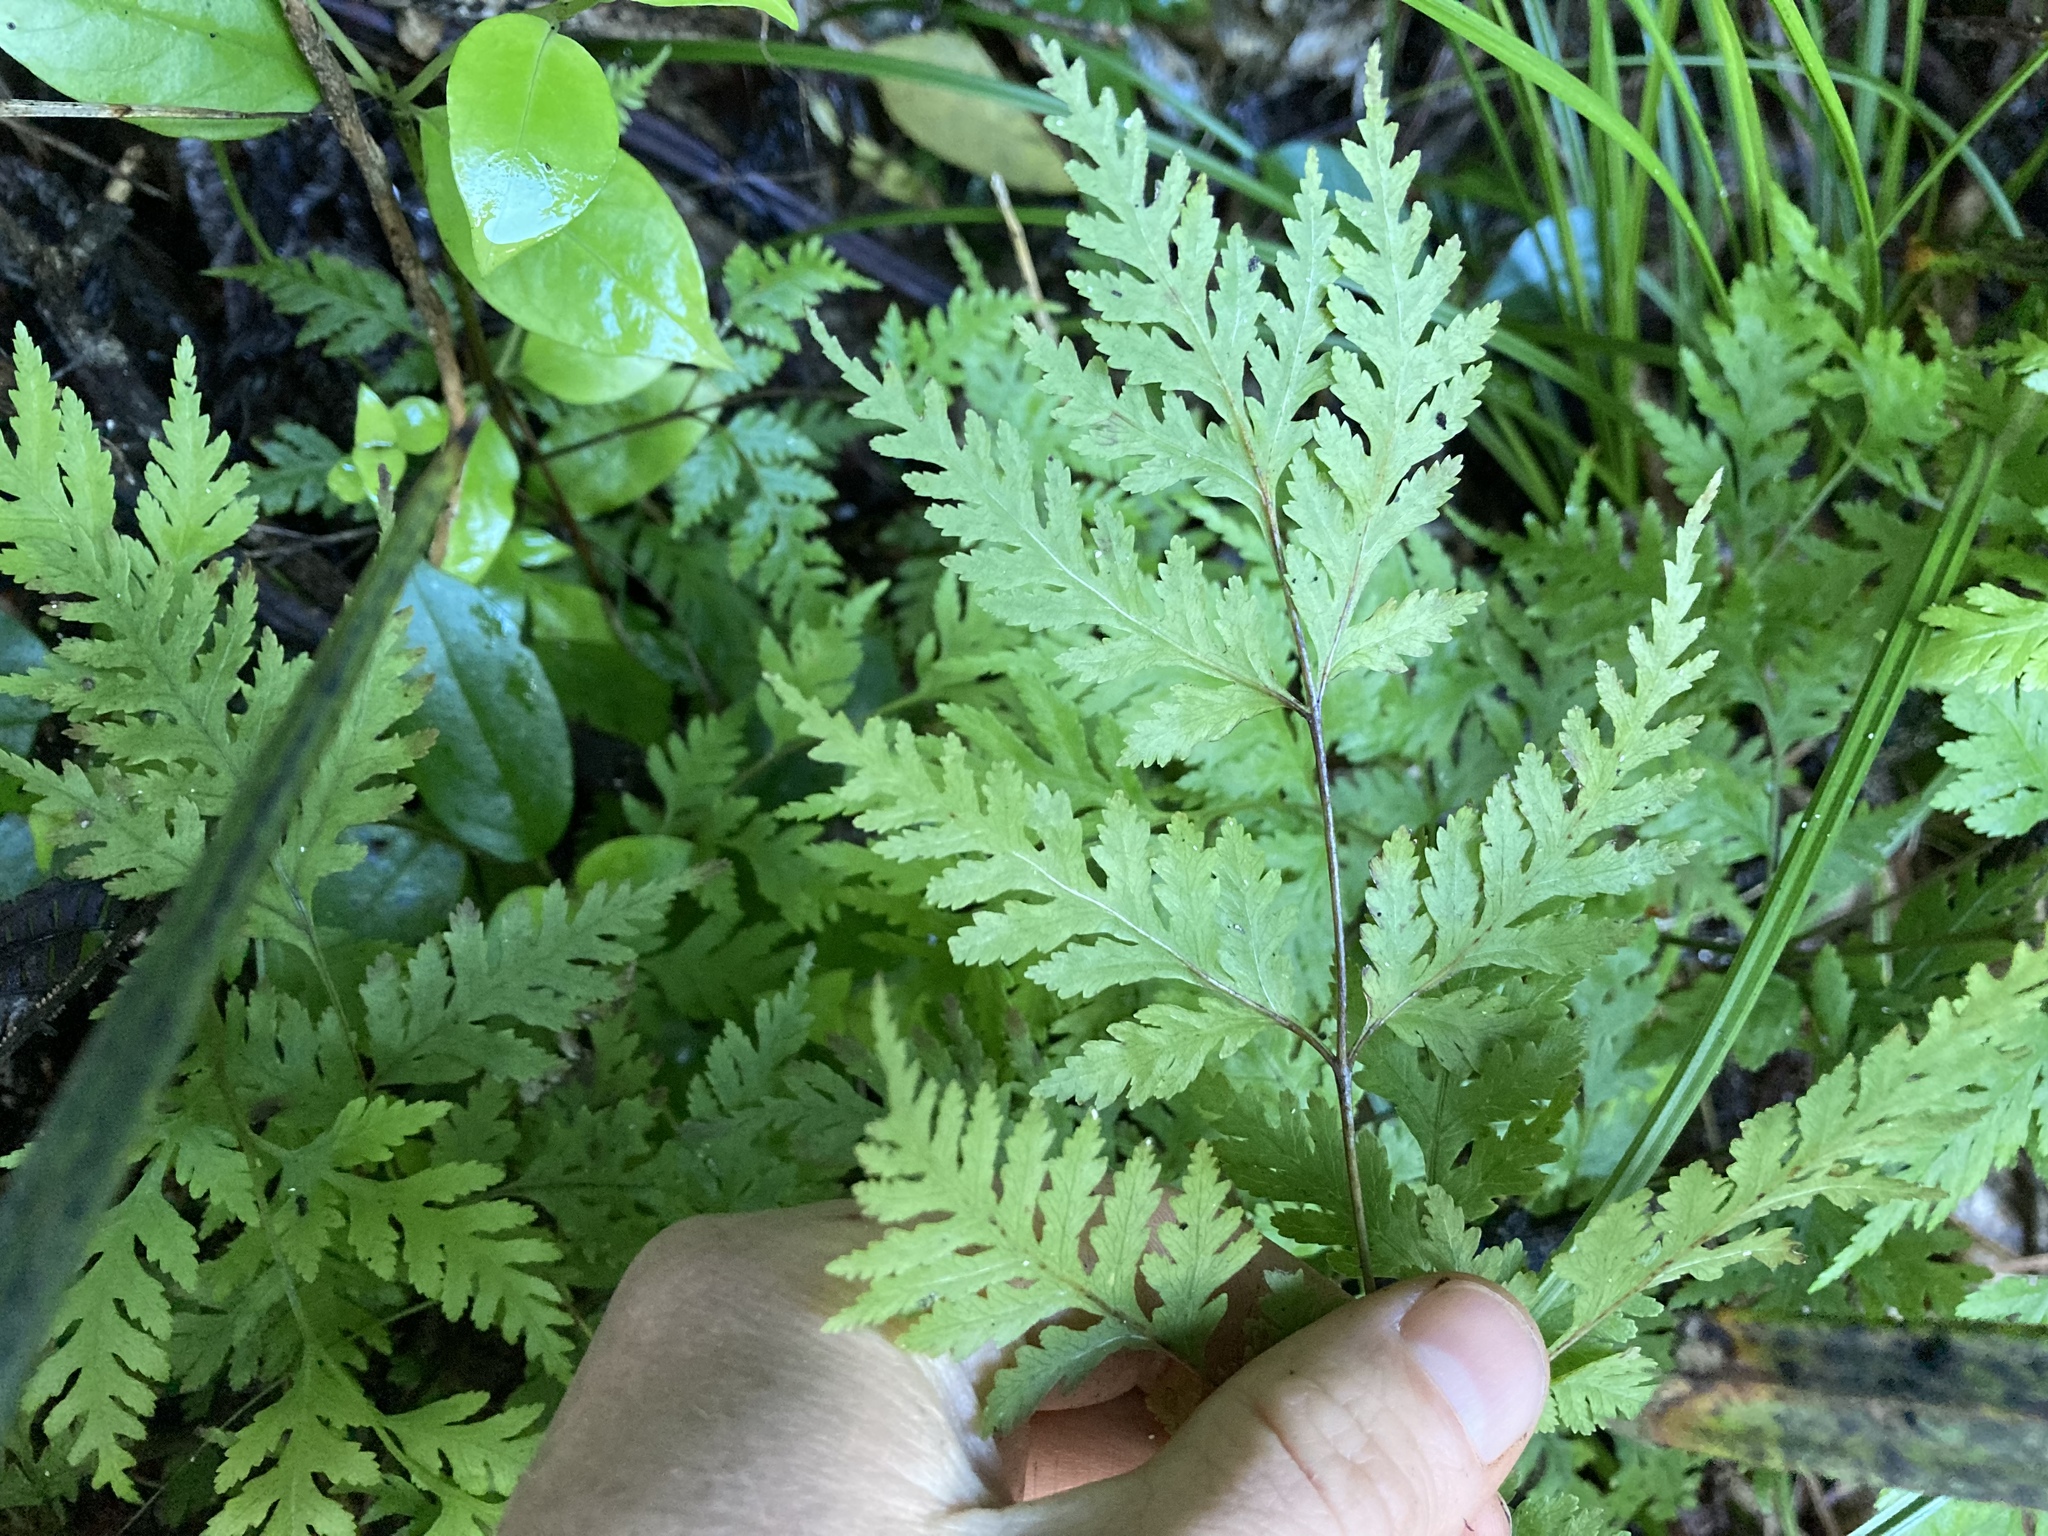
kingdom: Plantae
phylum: Tracheophyta
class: Polypodiopsida
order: Polypodiales
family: Pteridaceae
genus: Pteris
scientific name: Pteris macilenta
